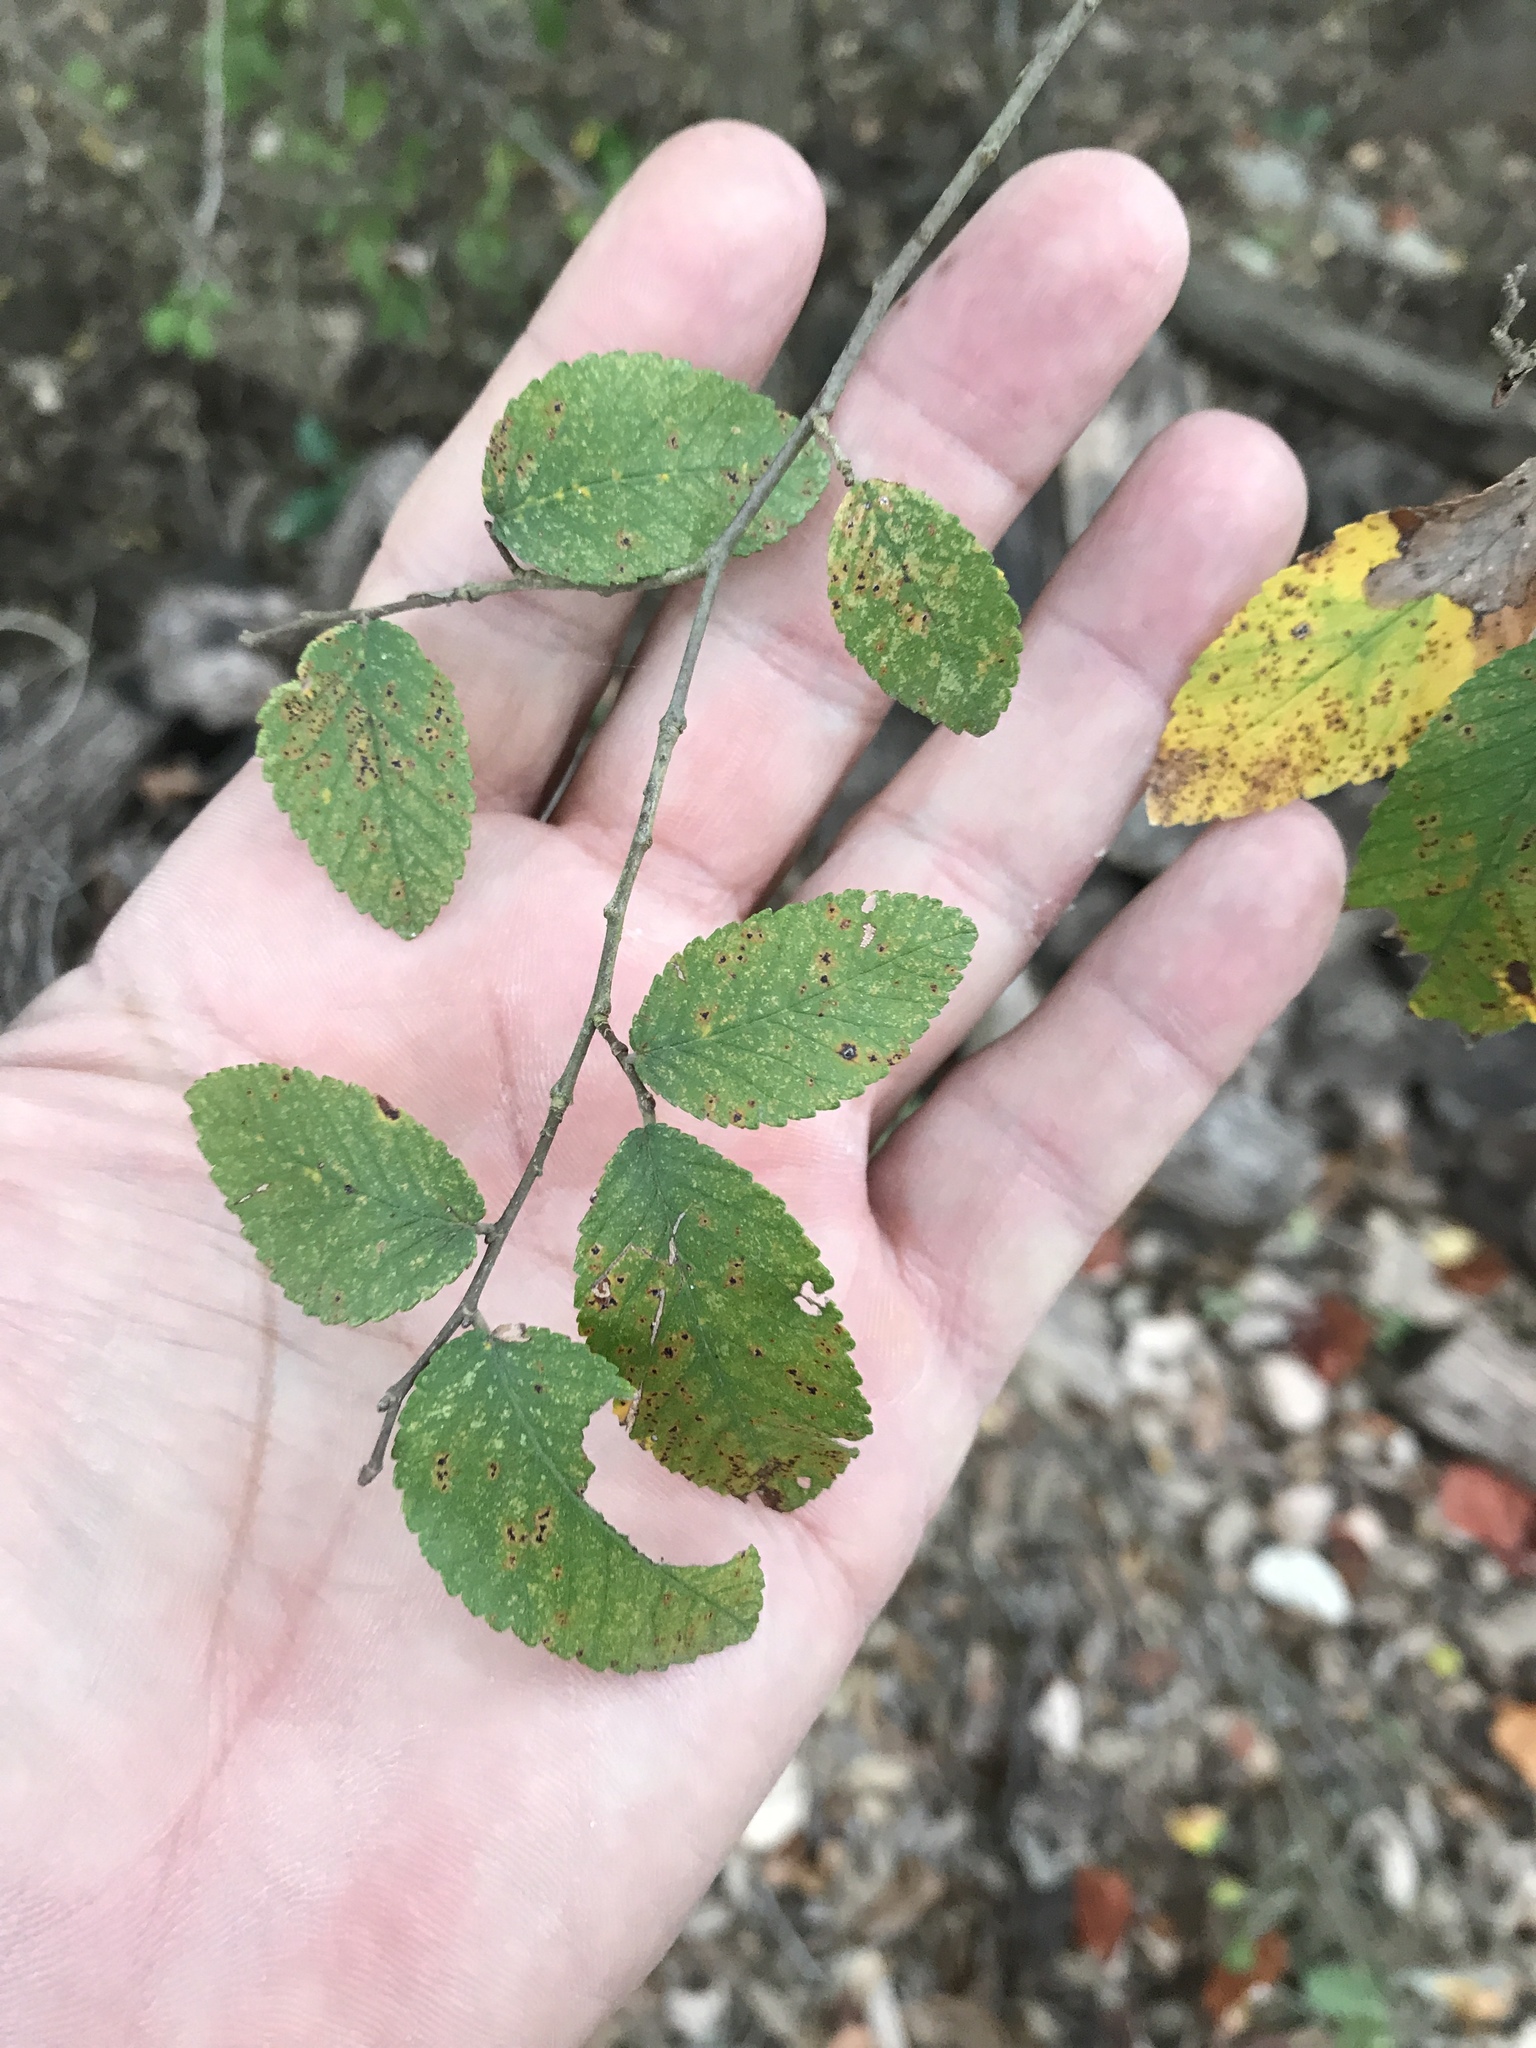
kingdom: Plantae
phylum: Tracheophyta
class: Magnoliopsida
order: Rosales
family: Ulmaceae
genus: Ulmus
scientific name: Ulmus crassifolia
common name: Basket elm
